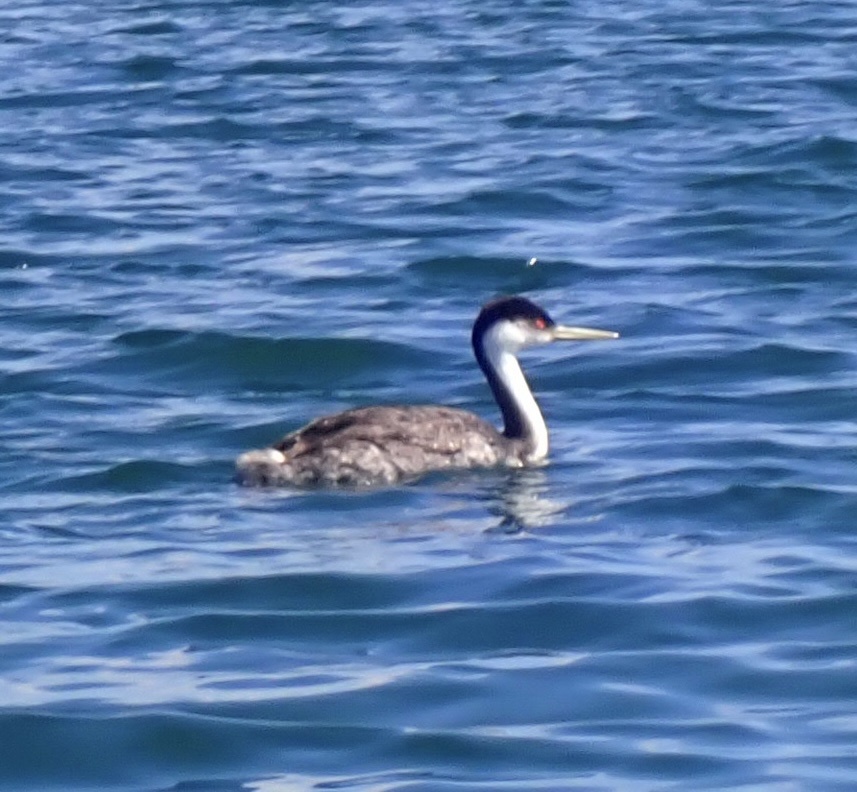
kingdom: Animalia
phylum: Chordata
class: Aves
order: Podicipediformes
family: Podicipedidae
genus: Aechmophorus
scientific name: Aechmophorus occidentalis
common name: Western grebe
